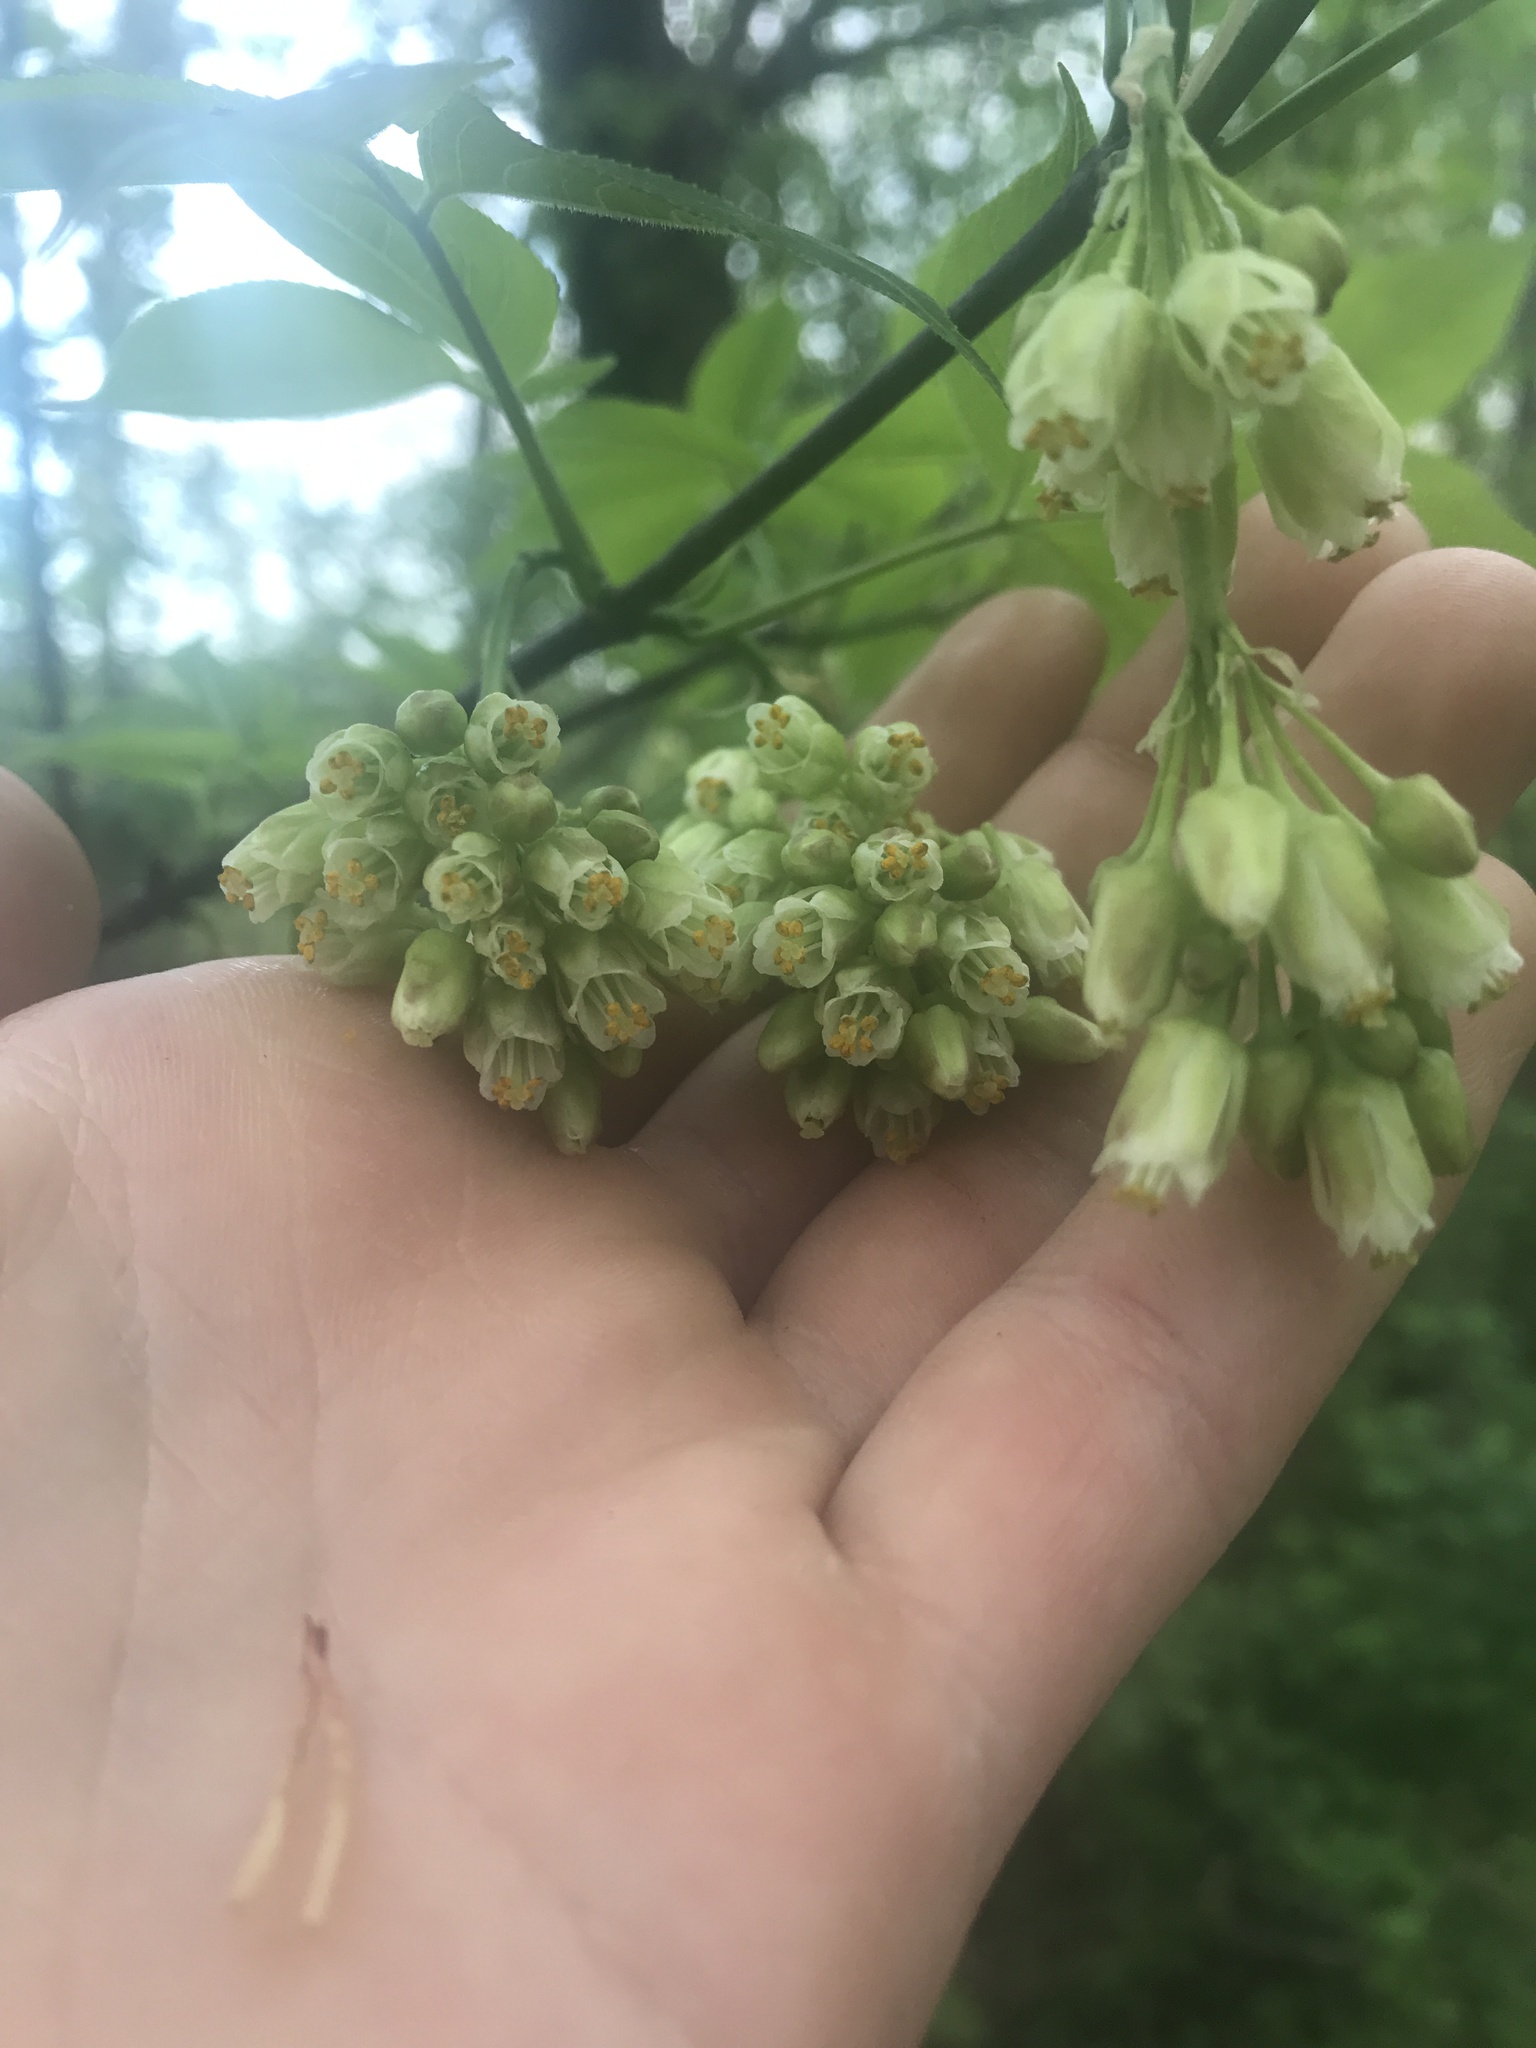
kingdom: Plantae
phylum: Tracheophyta
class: Magnoliopsida
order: Crossosomatales
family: Staphyleaceae
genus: Staphylea
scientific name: Staphylea trifolia
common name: American bladdernut
